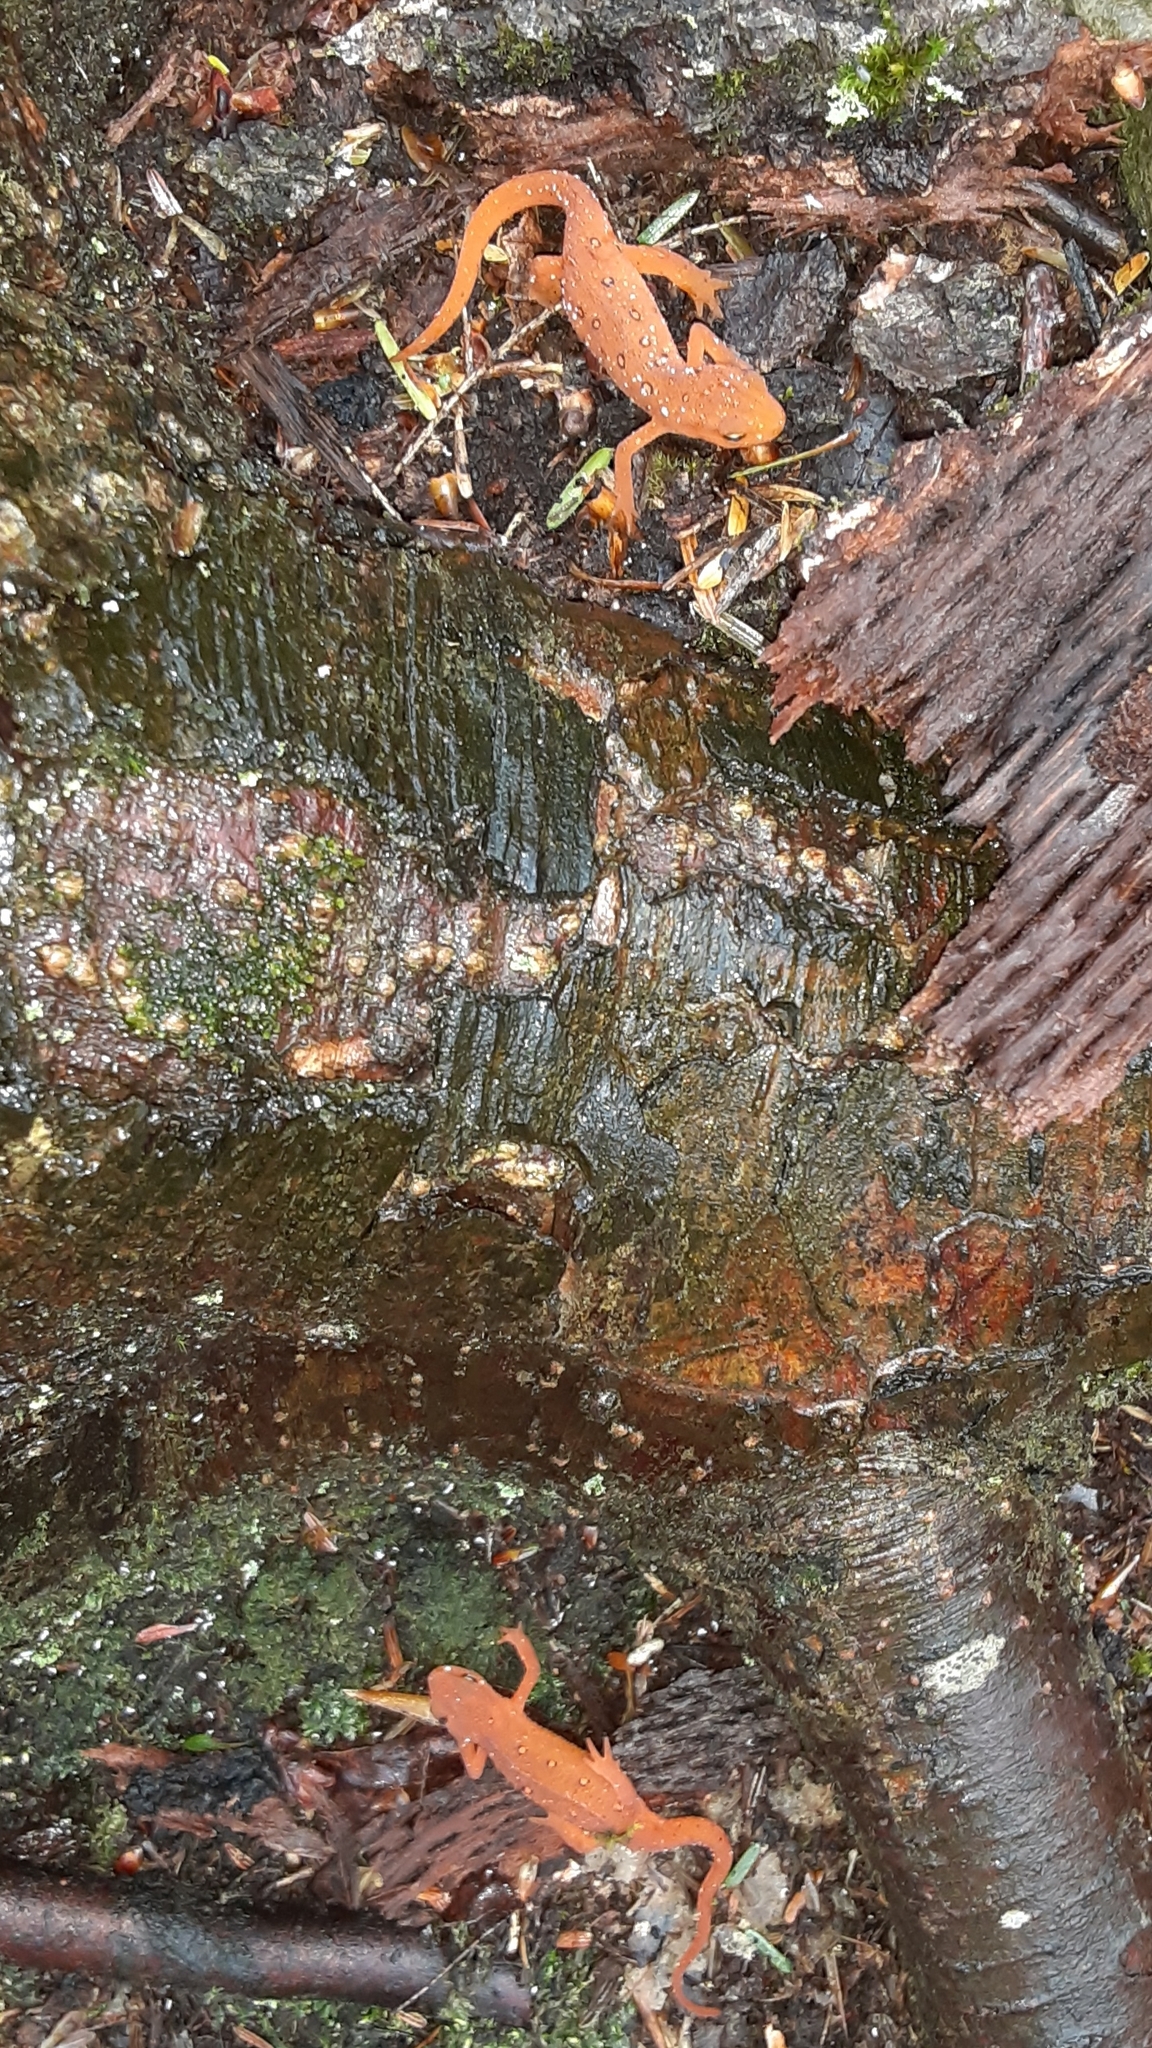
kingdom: Animalia
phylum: Chordata
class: Amphibia
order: Caudata
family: Salamandridae
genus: Notophthalmus
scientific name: Notophthalmus viridescens
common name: Eastern newt
